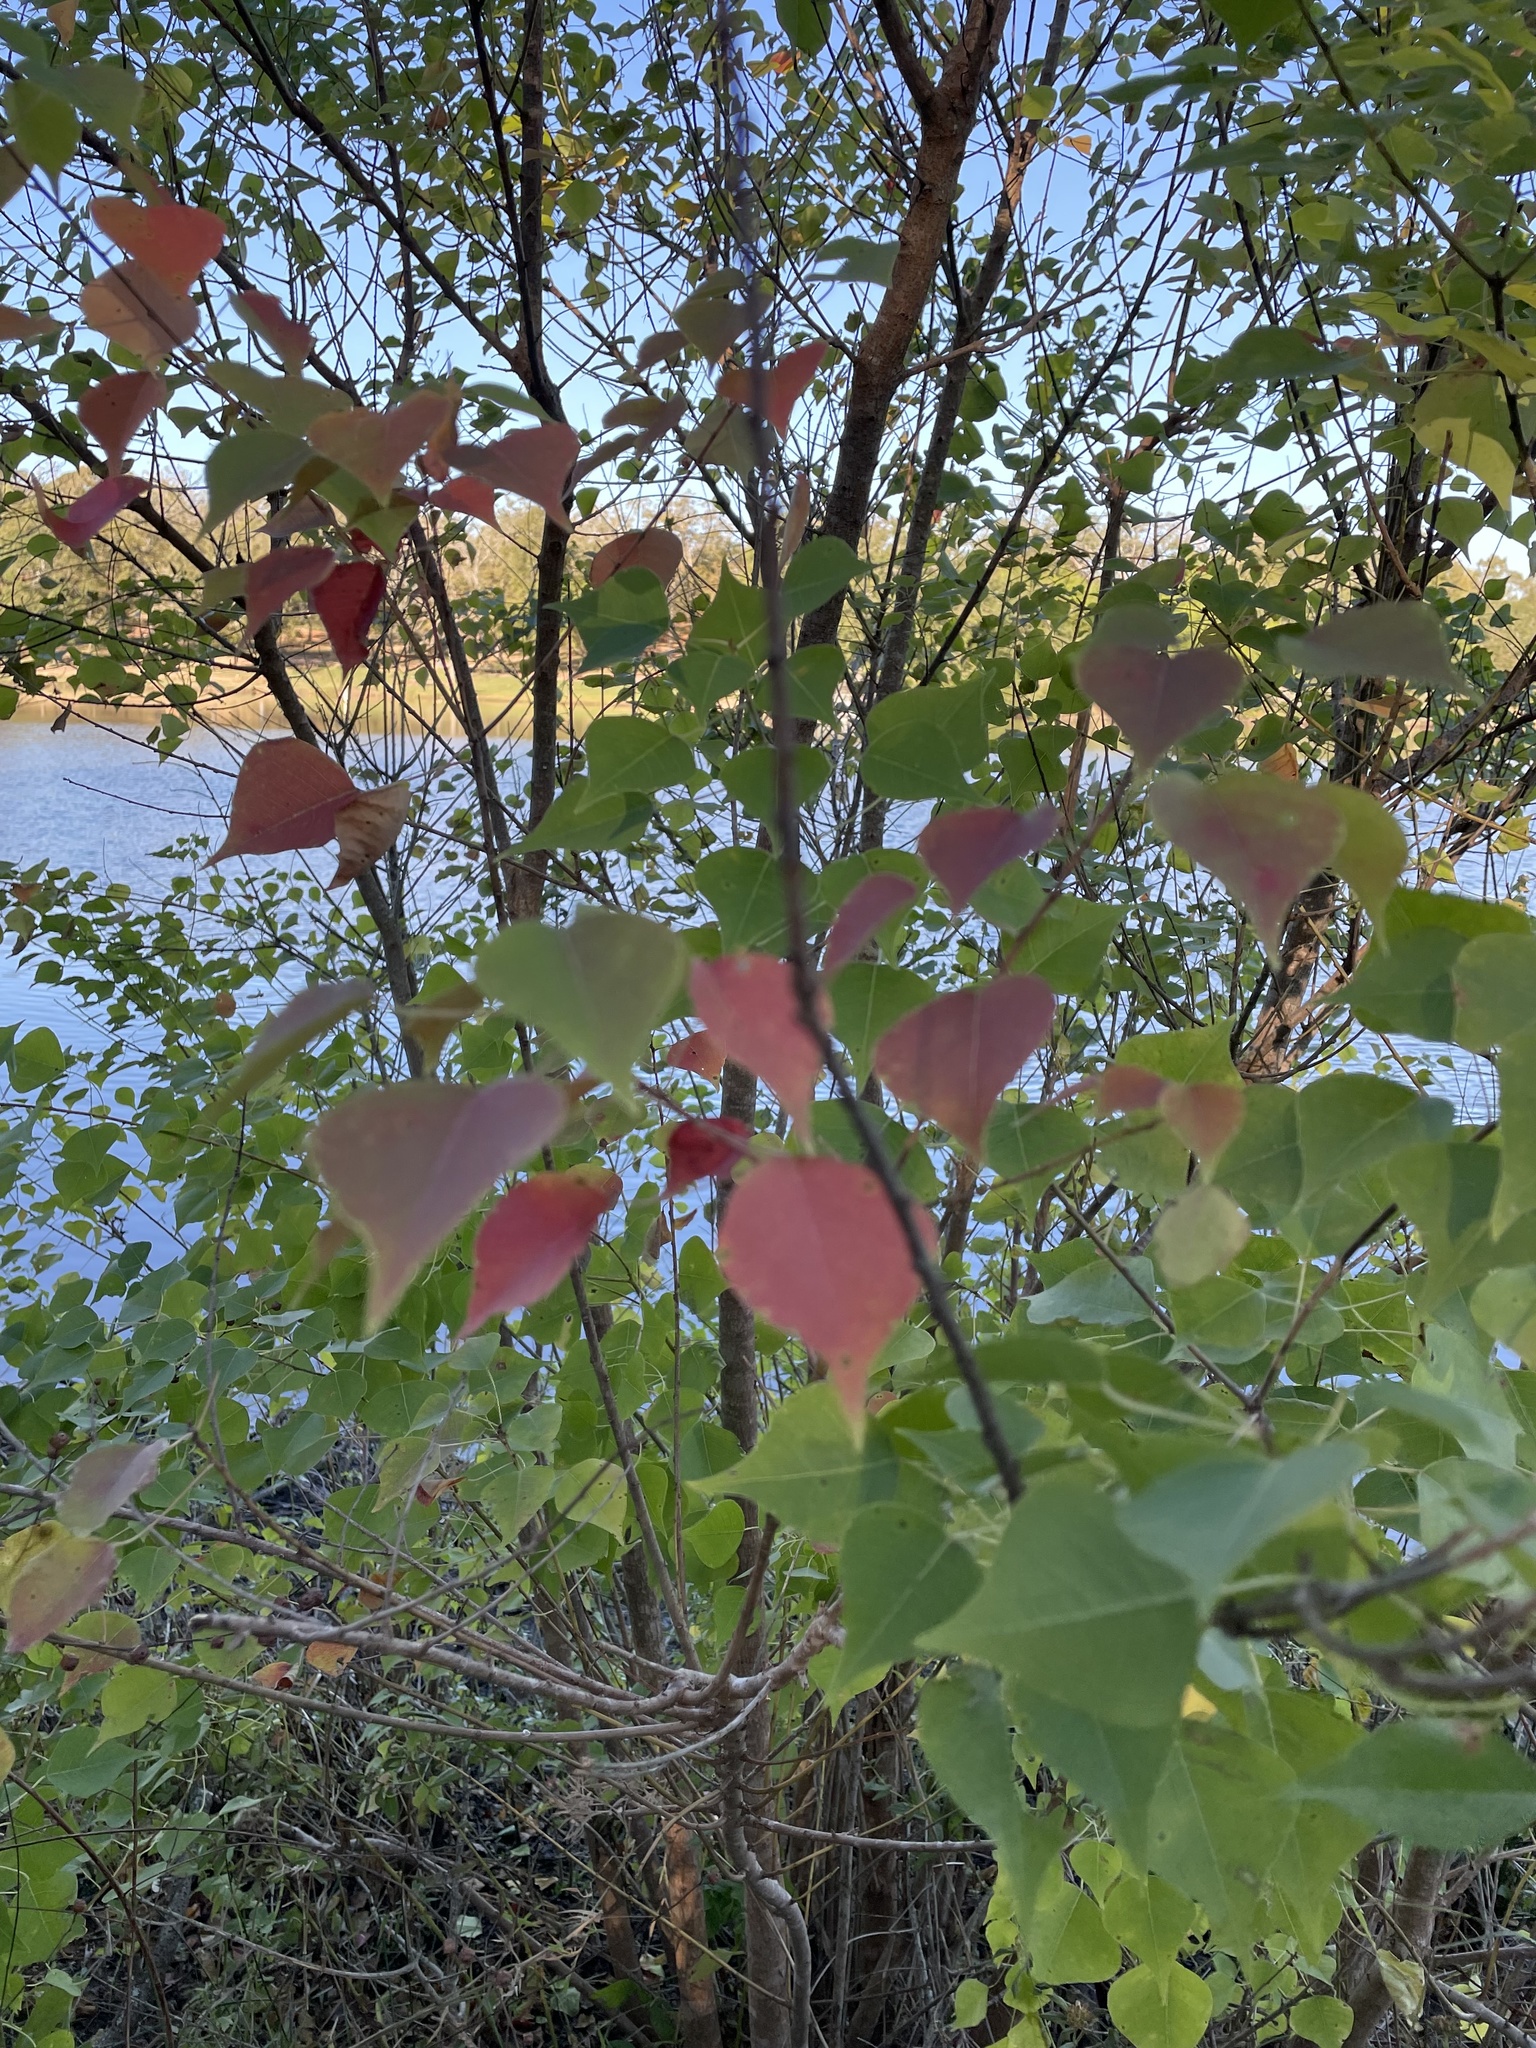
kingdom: Plantae
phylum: Tracheophyta
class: Magnoliopsida
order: Malpighiales
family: Euphorbiaceae
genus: Triadica
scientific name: Triadica sebifera
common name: Chinese tallow
